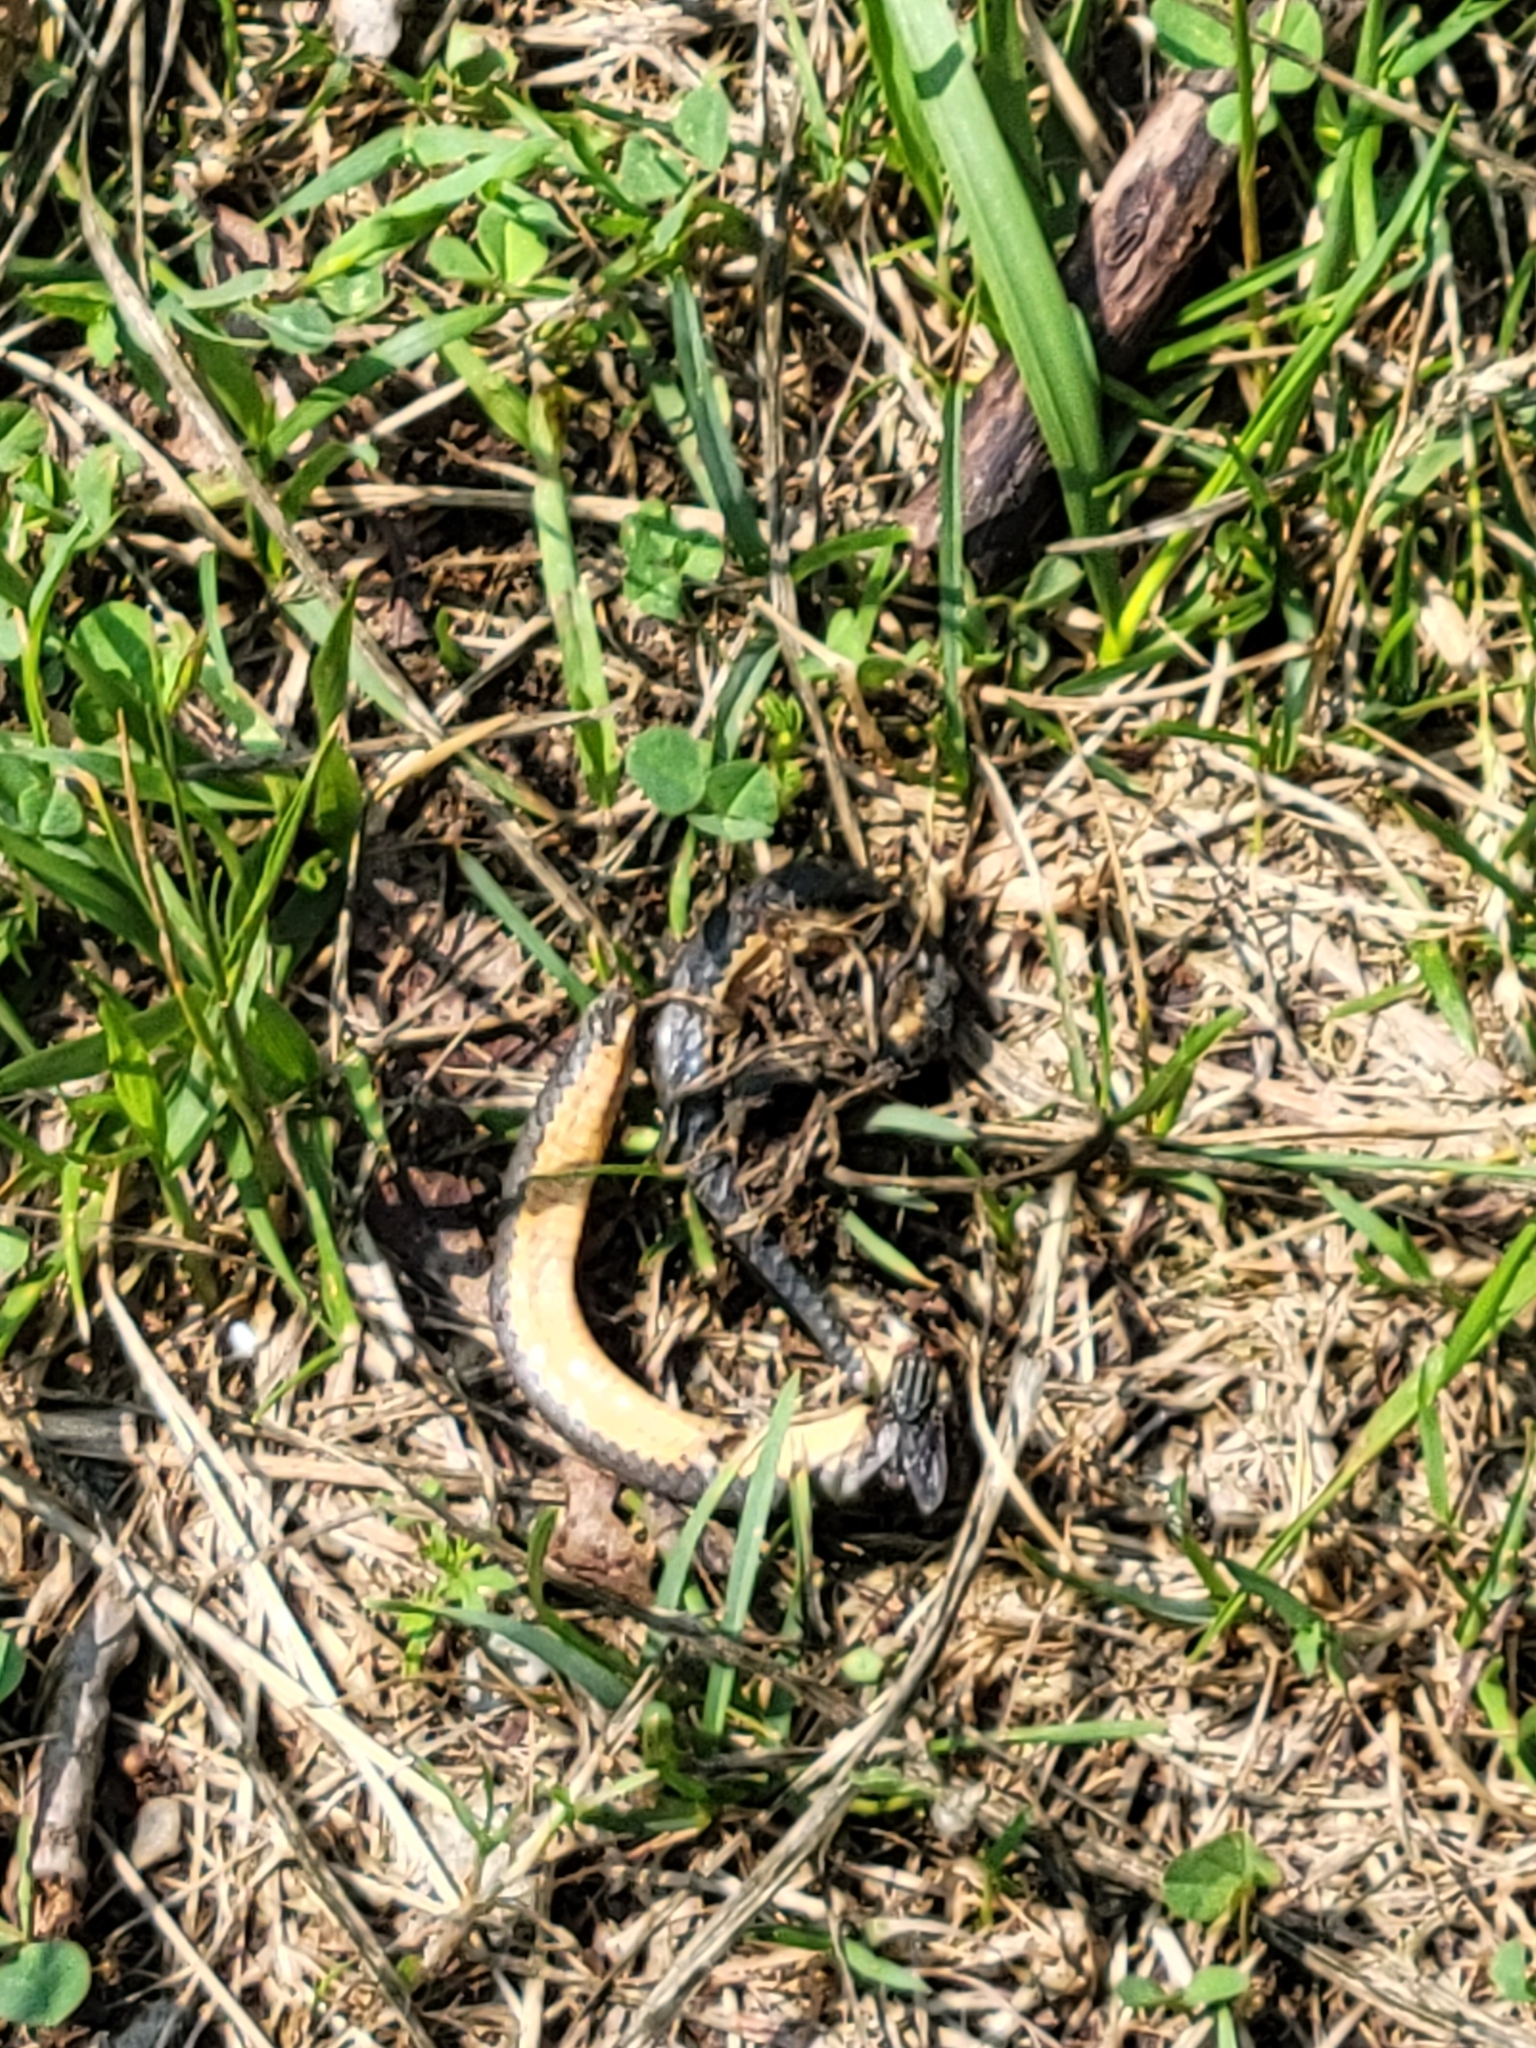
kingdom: Animalia
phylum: Chordata
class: Squamata
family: Colubridae
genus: Diadophis
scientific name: Diadophis punctatus
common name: Ringneck snake
